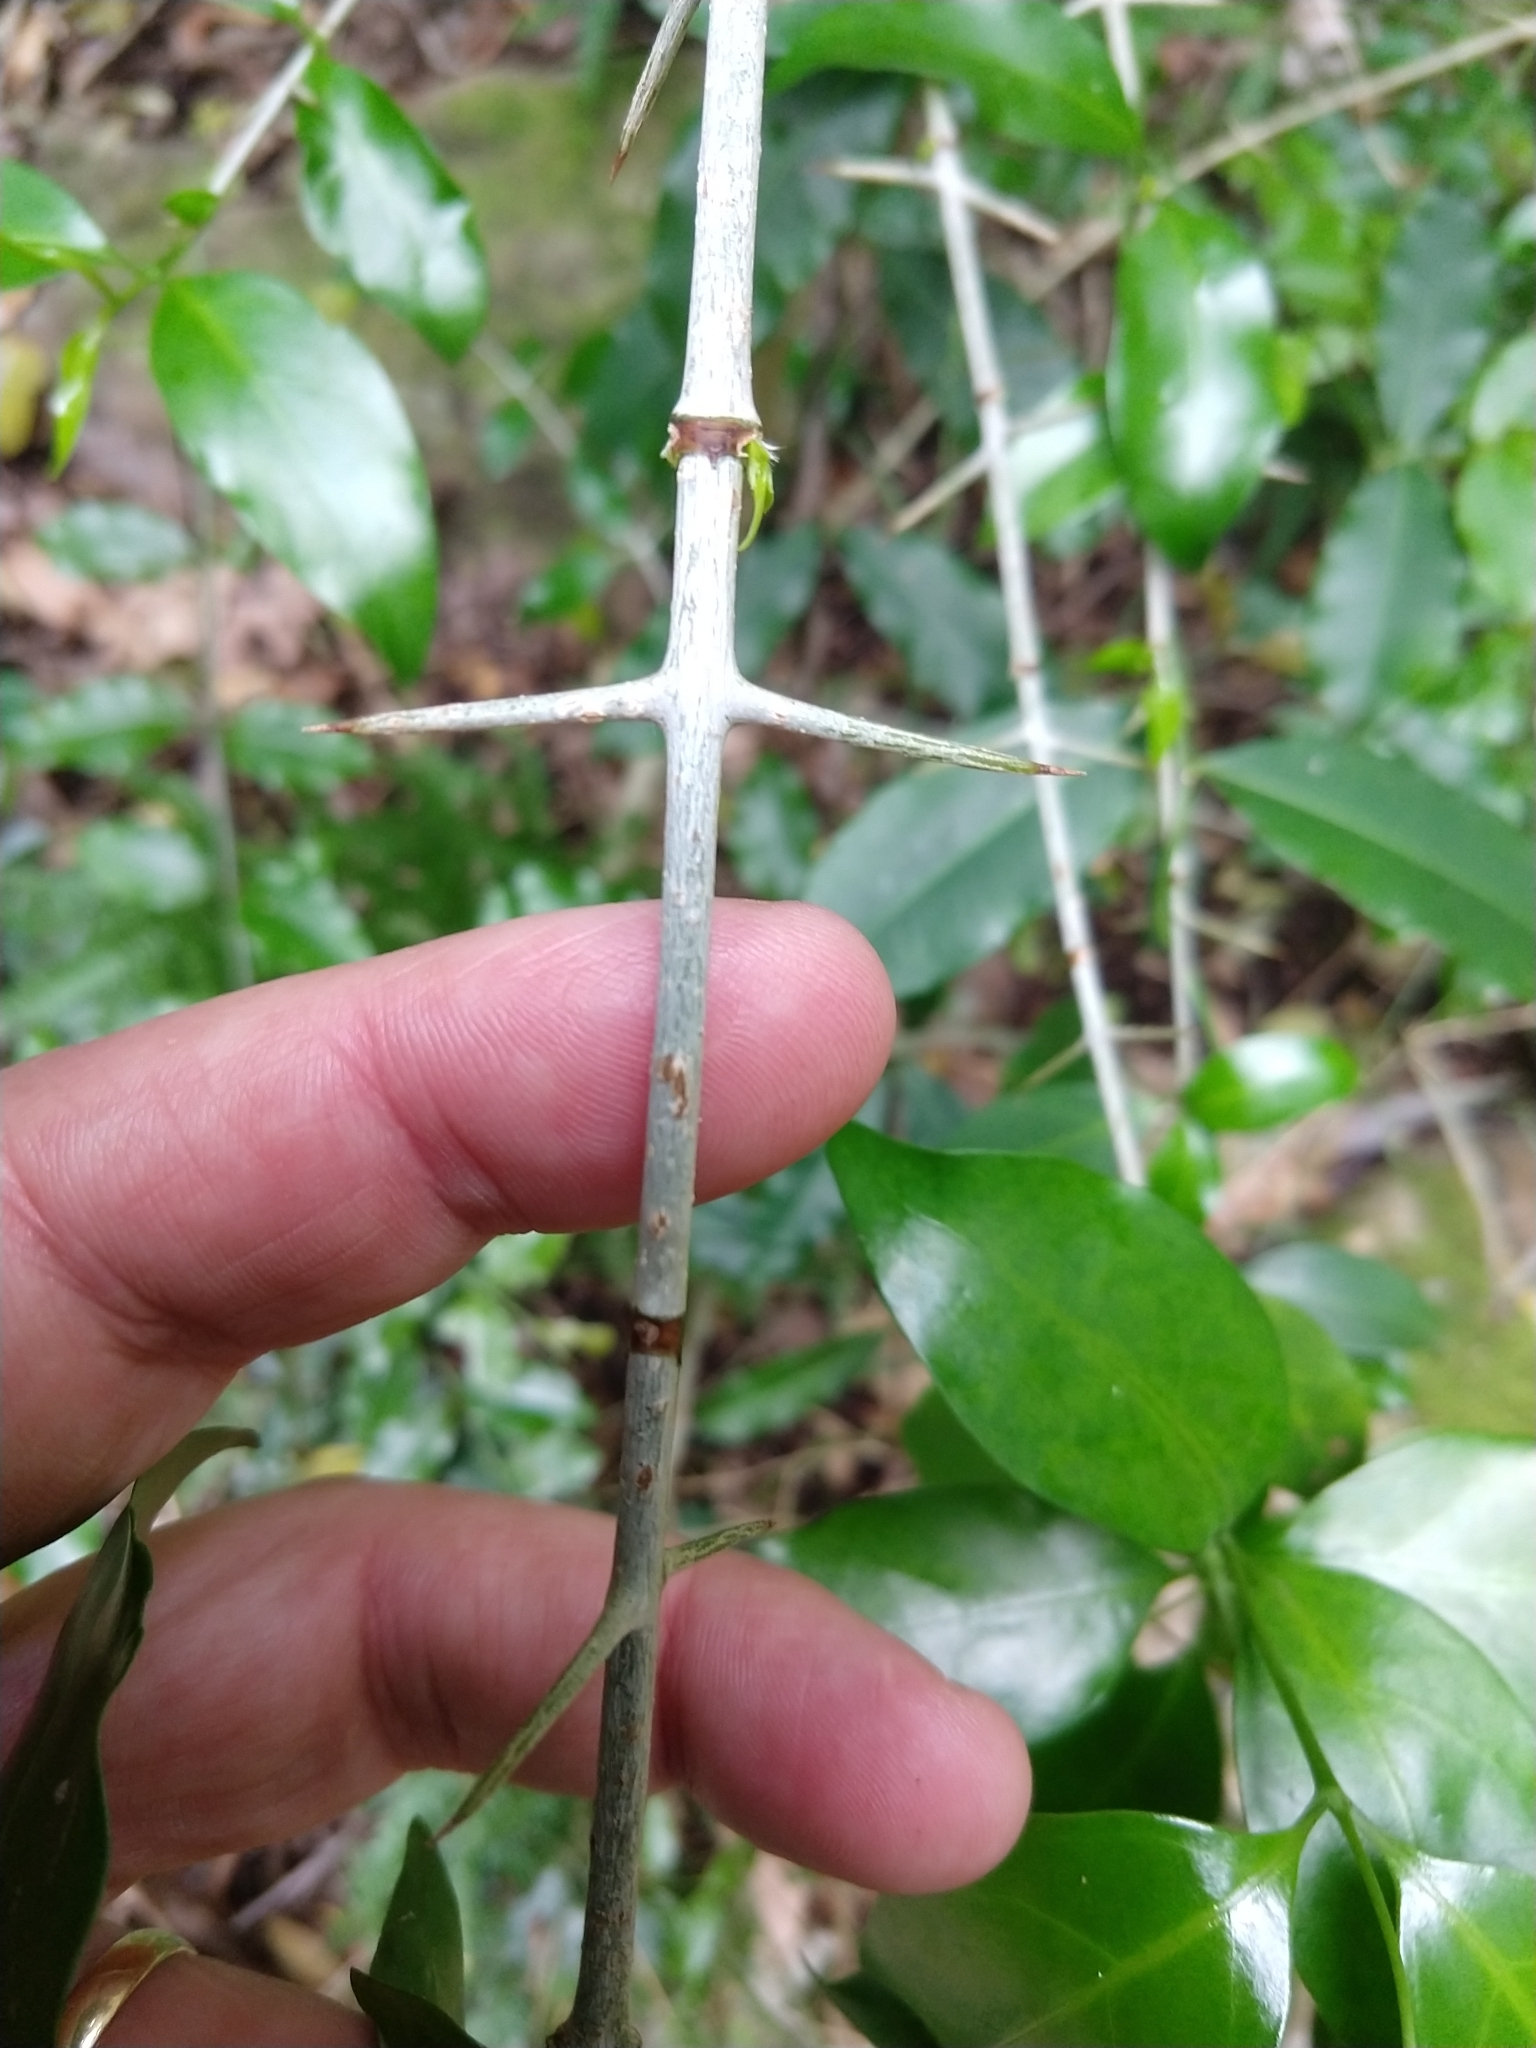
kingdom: Plantae
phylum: Tracheophyta
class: Magnoliopsida
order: Gentianales
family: Rubiaceae
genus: Canthium
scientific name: Canthium inerme
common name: Unarmed turkey-berry
